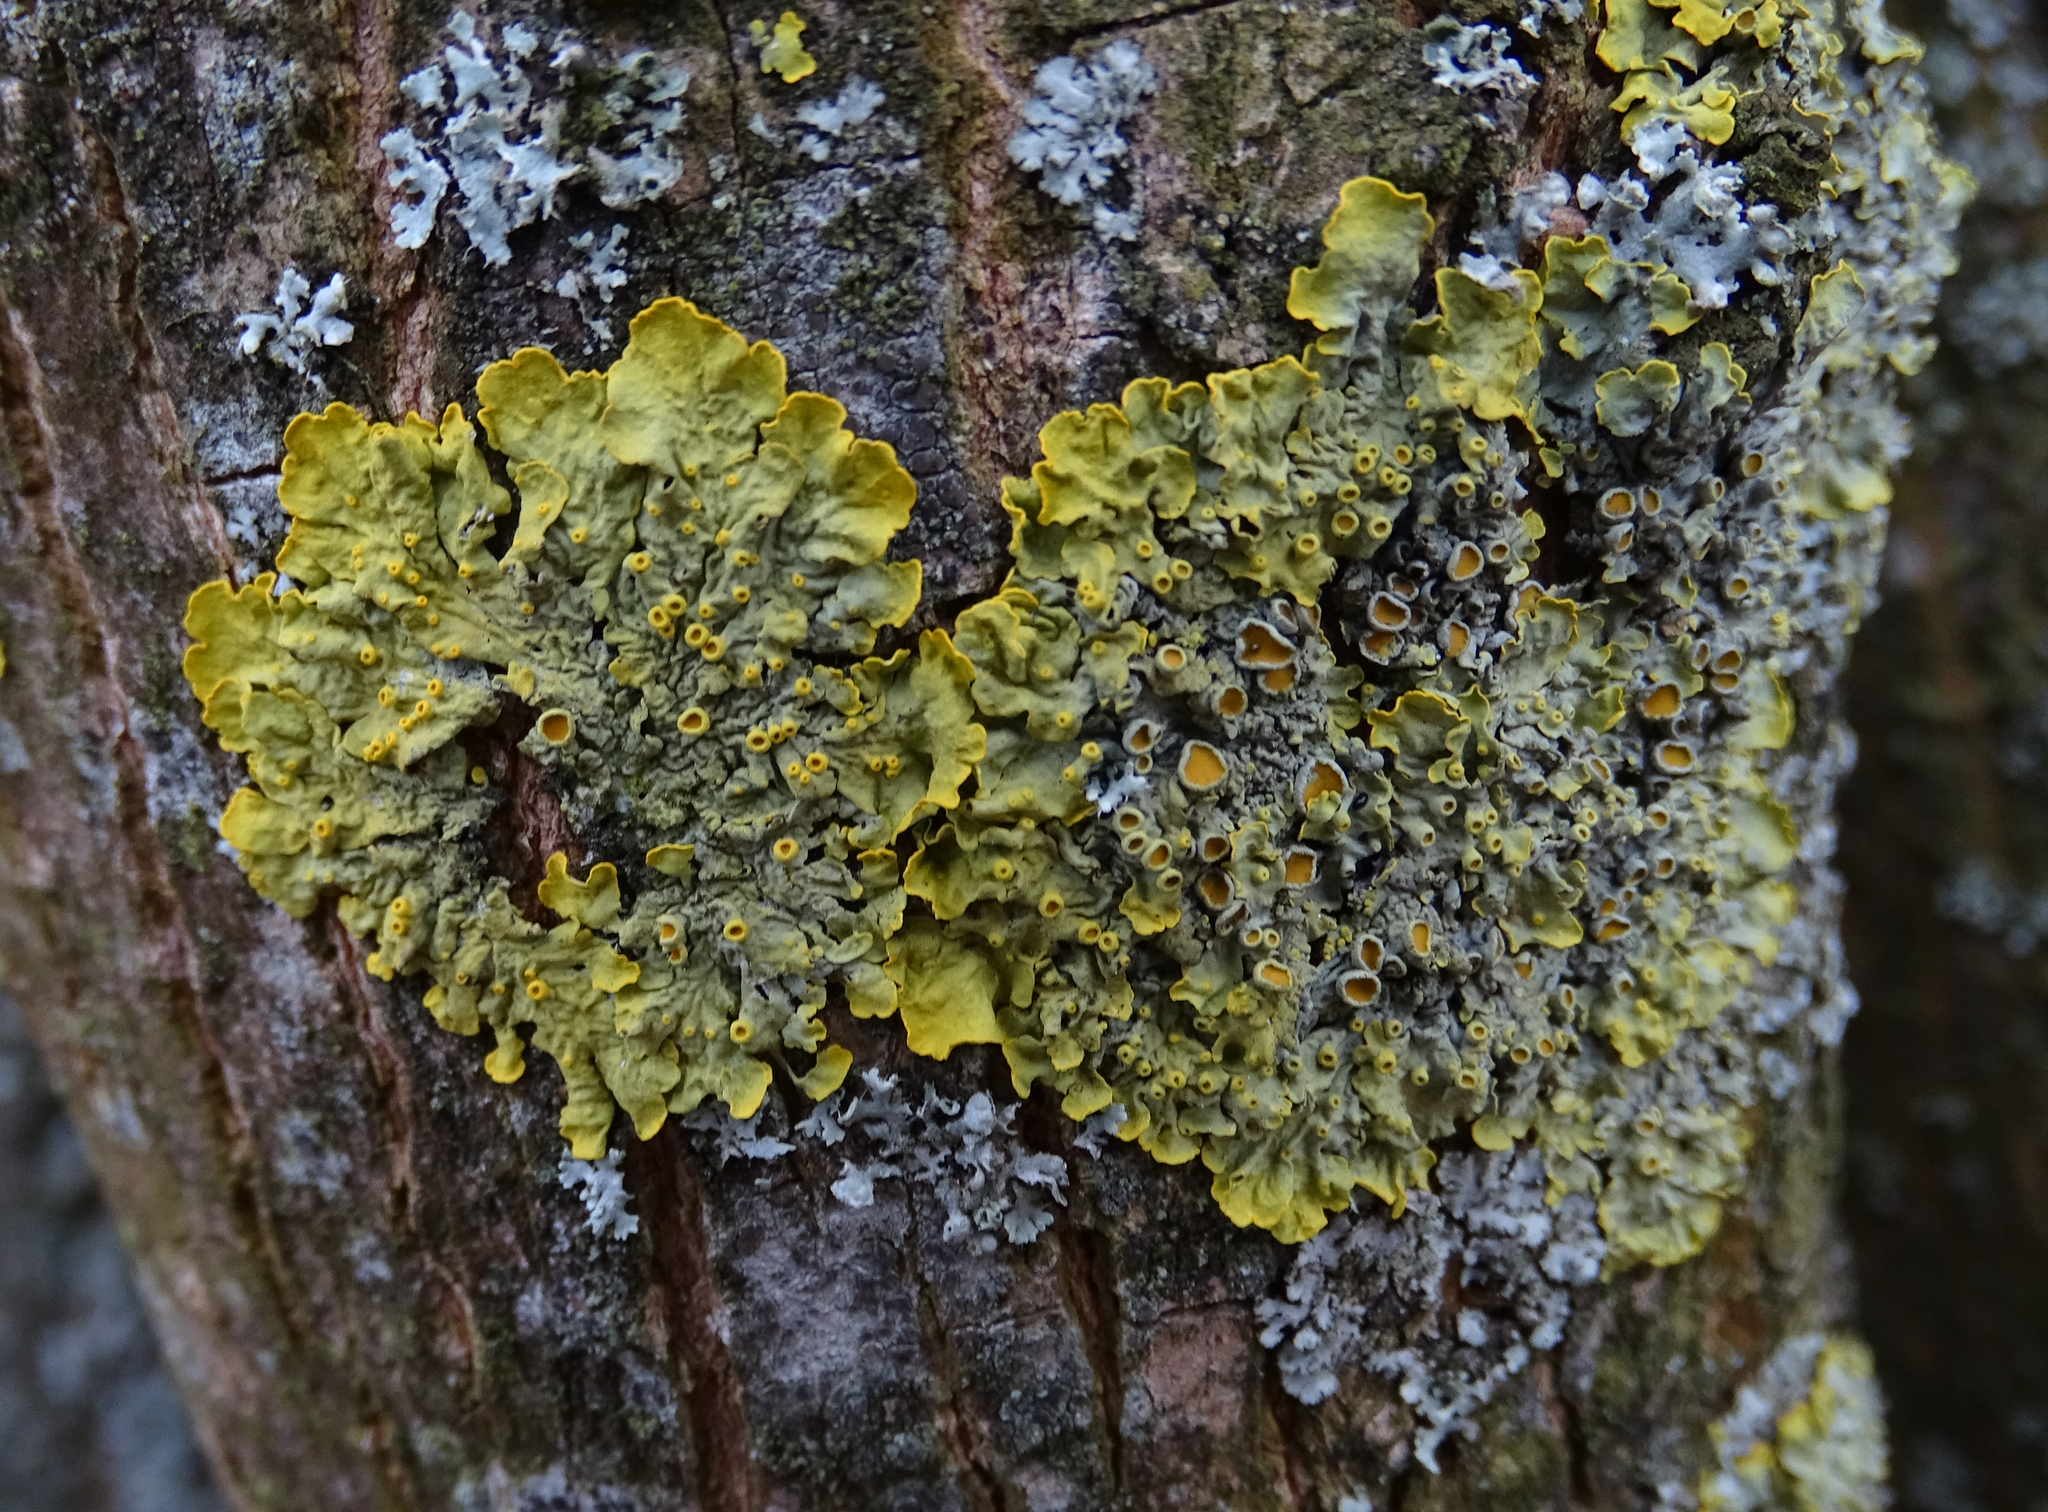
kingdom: Fungi
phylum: Ascomycota
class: Lecanoromycetes
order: Teloschistales
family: Teloschistaceae
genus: Xanthoria
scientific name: Xanthoria parietina
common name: Common orange lichen
